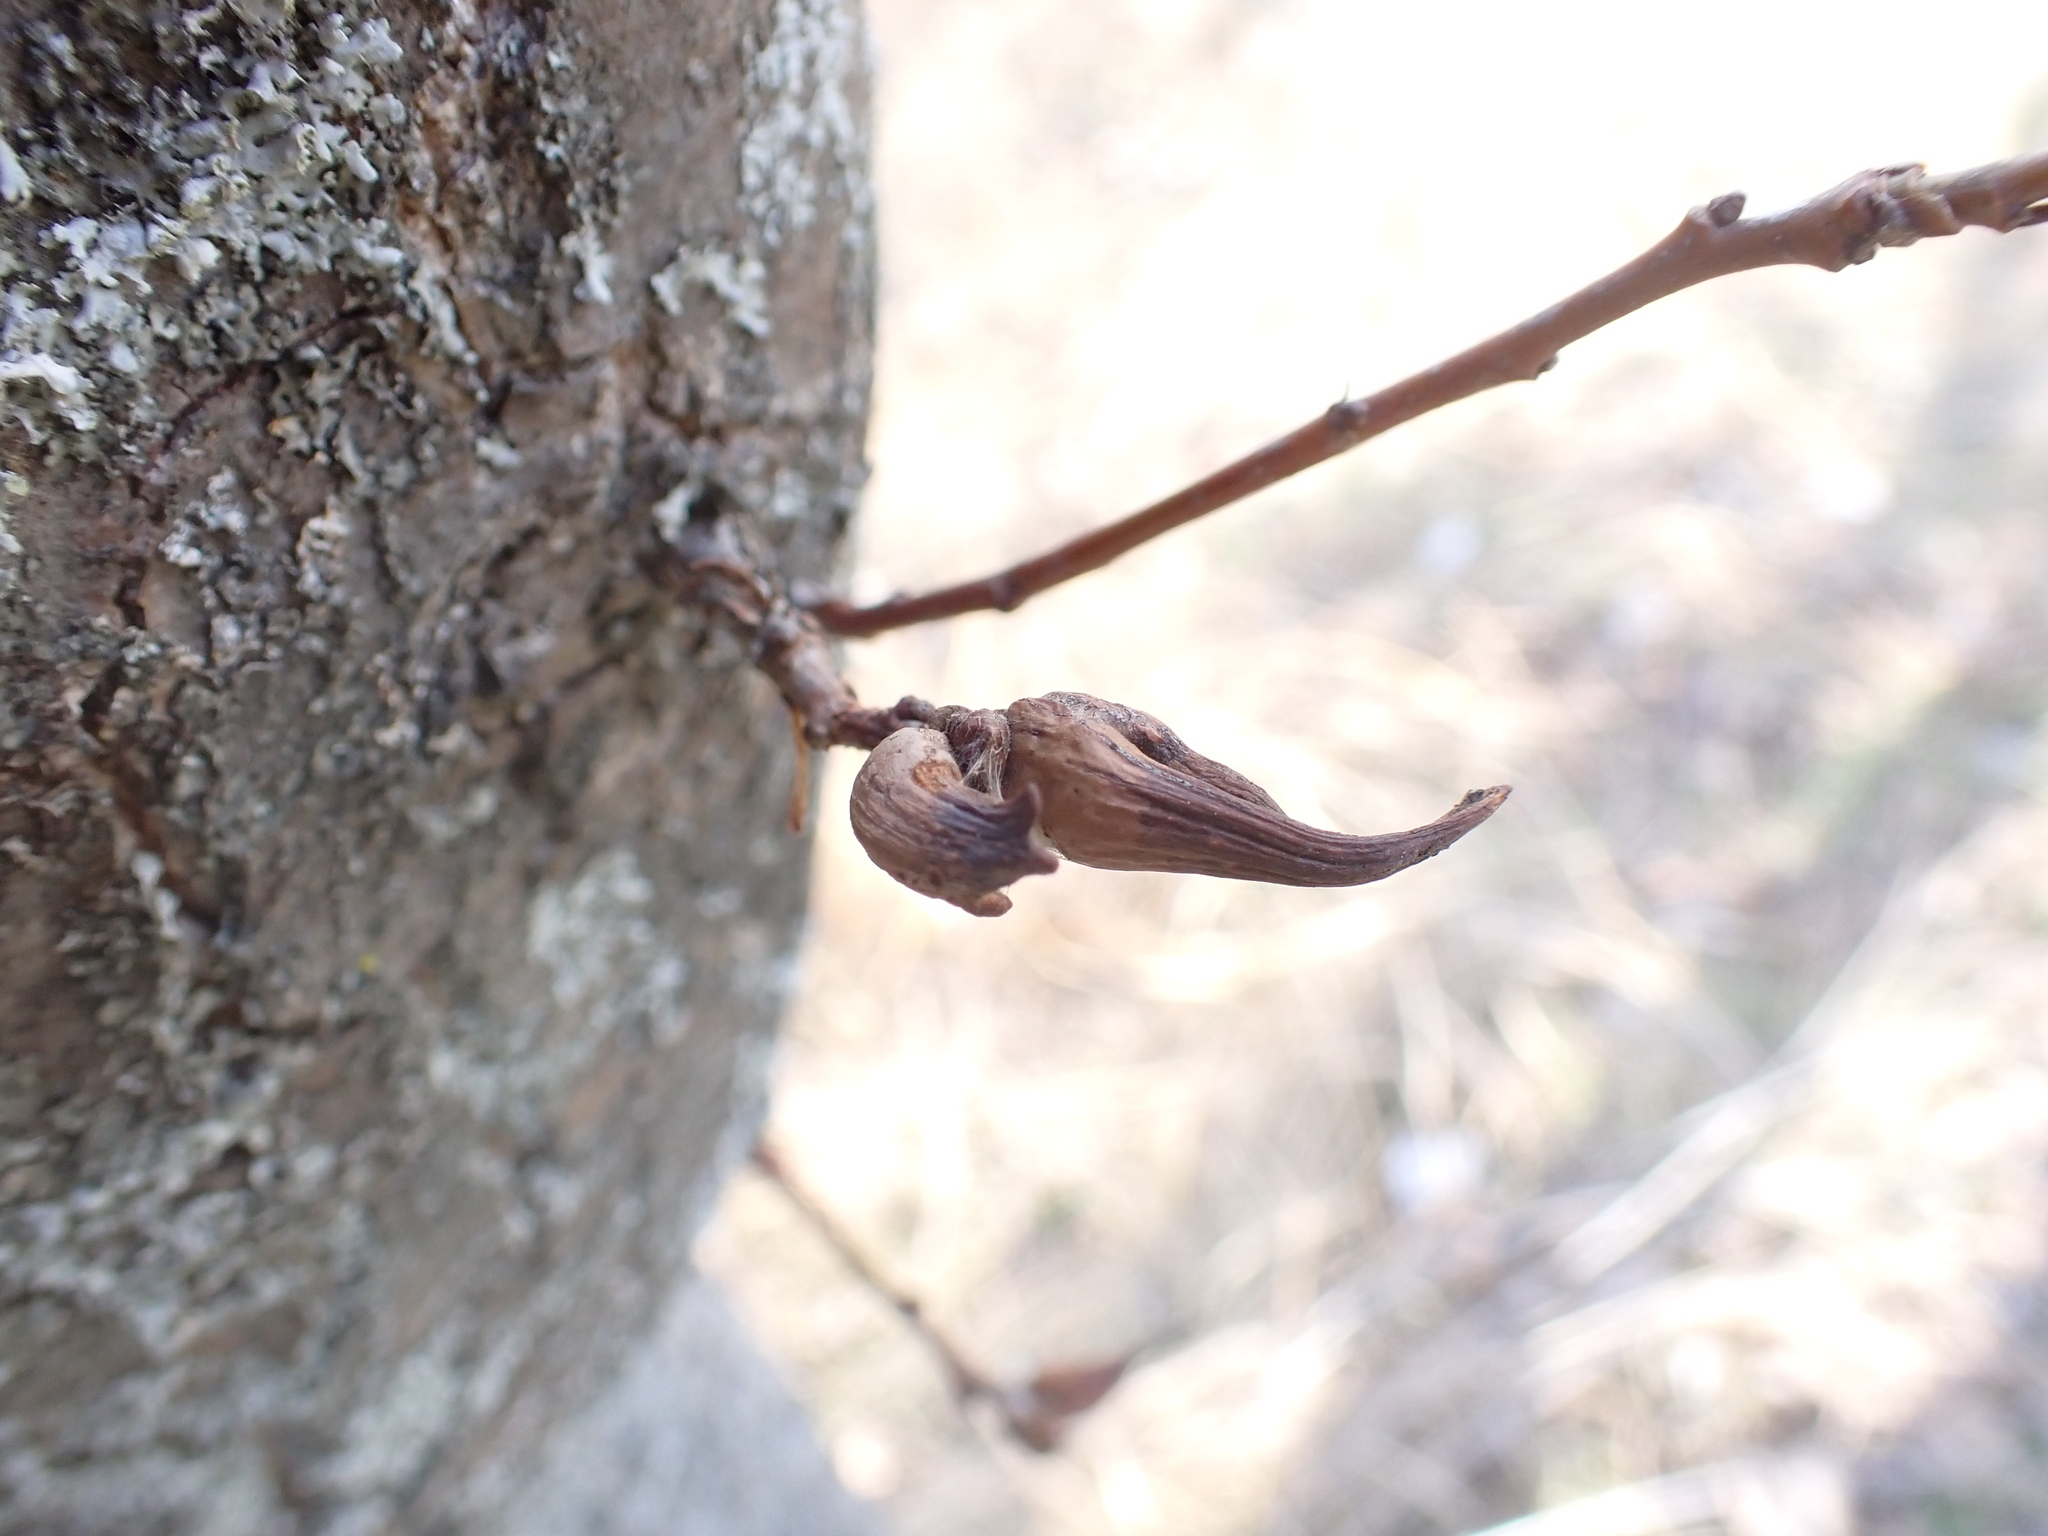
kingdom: Animalia
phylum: Arthropoda
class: Insecta
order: Hymenoptera
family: Cynipidae
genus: Andricus
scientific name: Andricus aries
